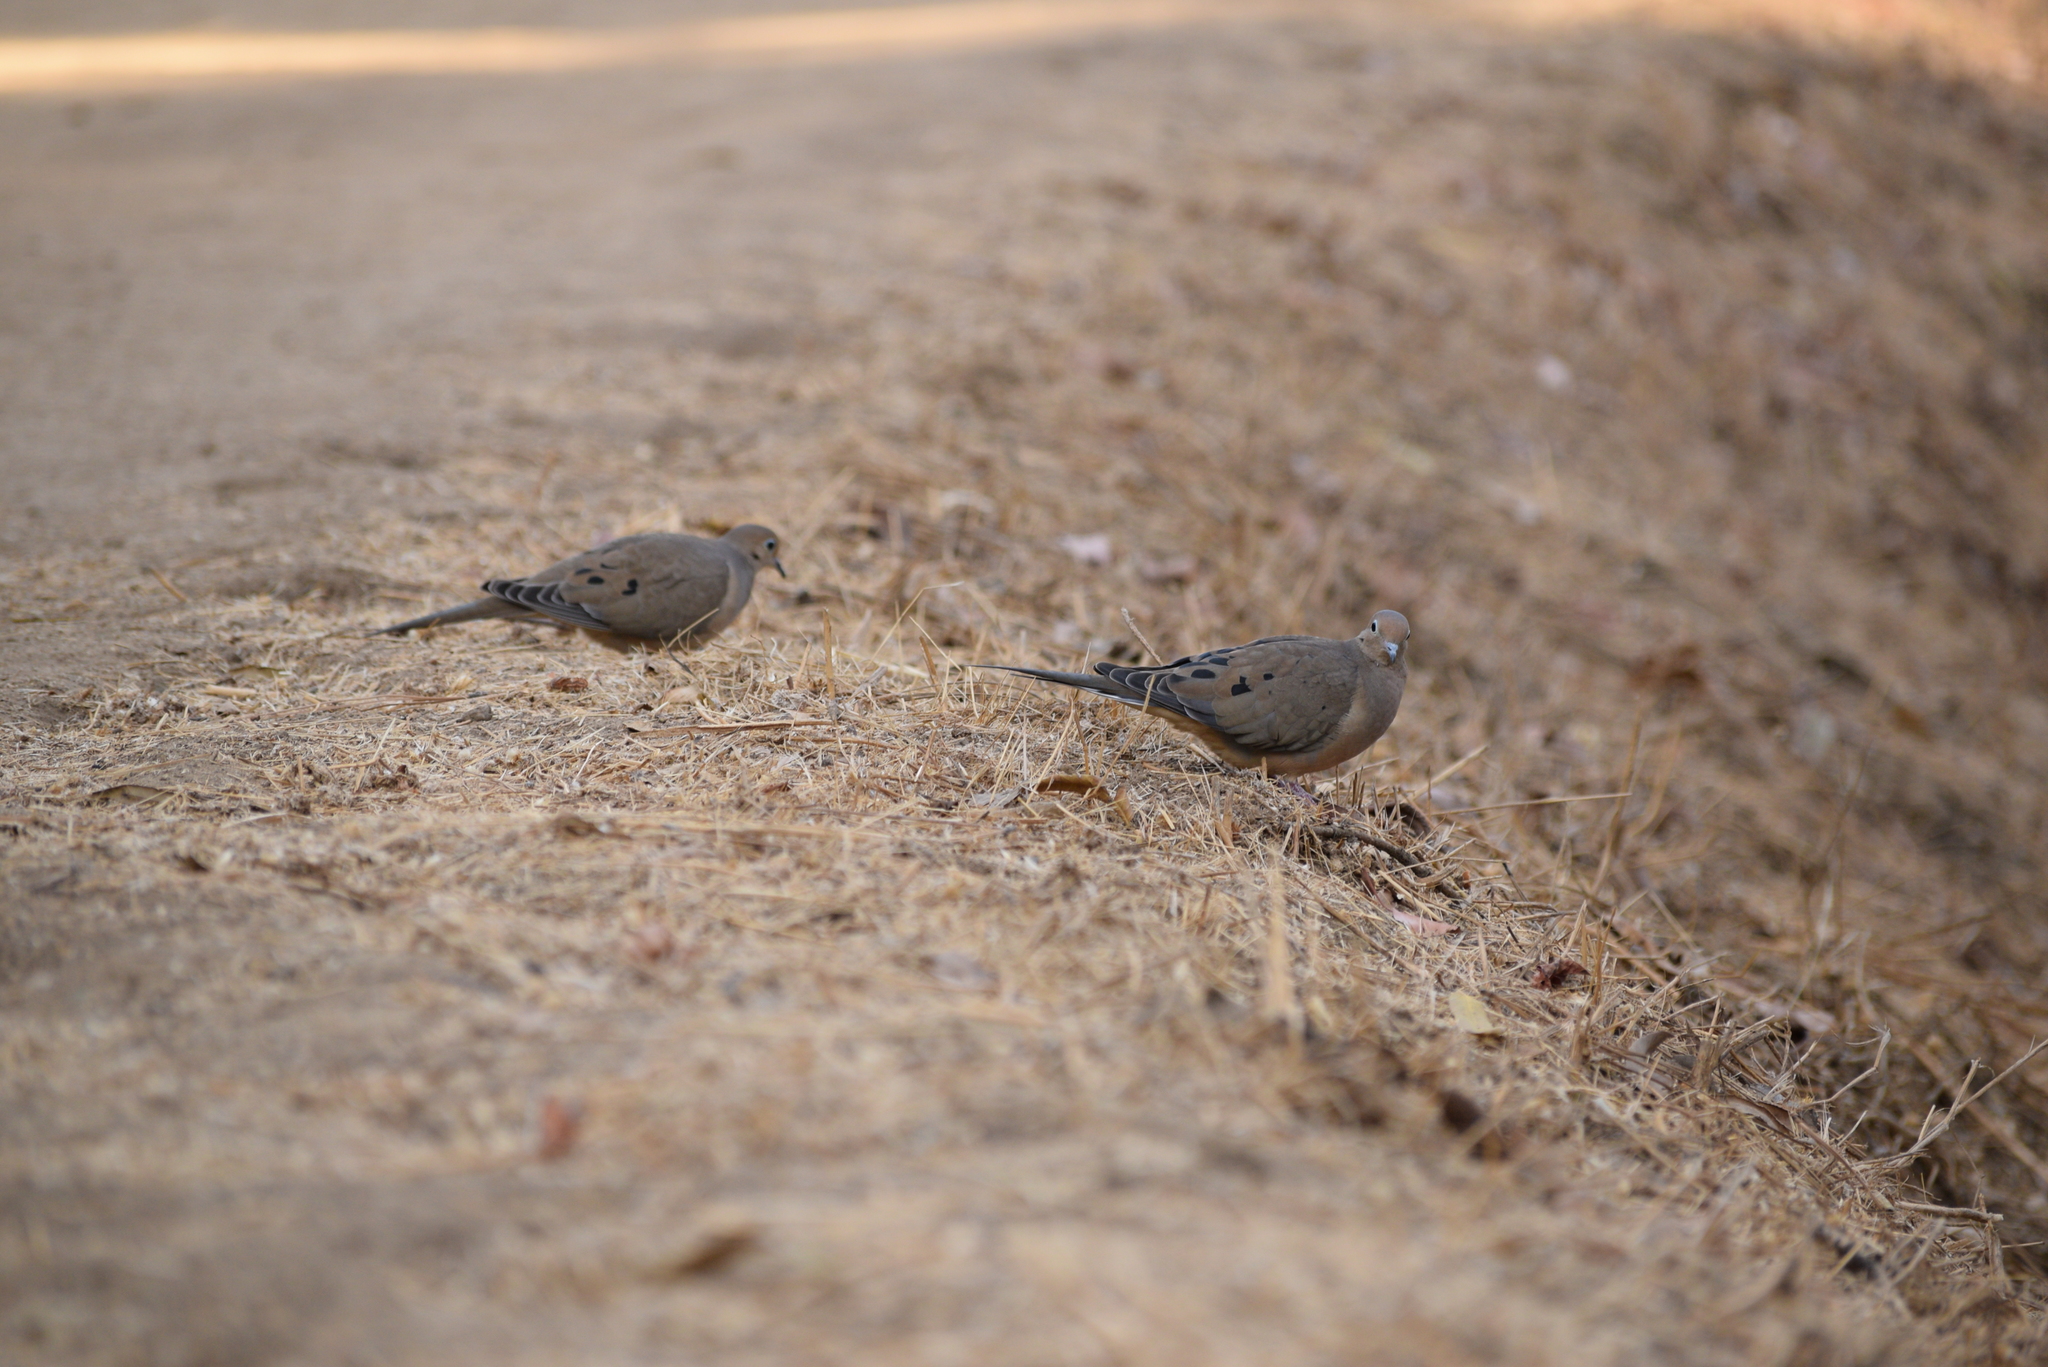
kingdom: Animalia
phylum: Chordata
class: Aves
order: Columbiformes
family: Columbidae
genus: Zenaida
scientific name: Zenaida macroura
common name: Mourning dove
